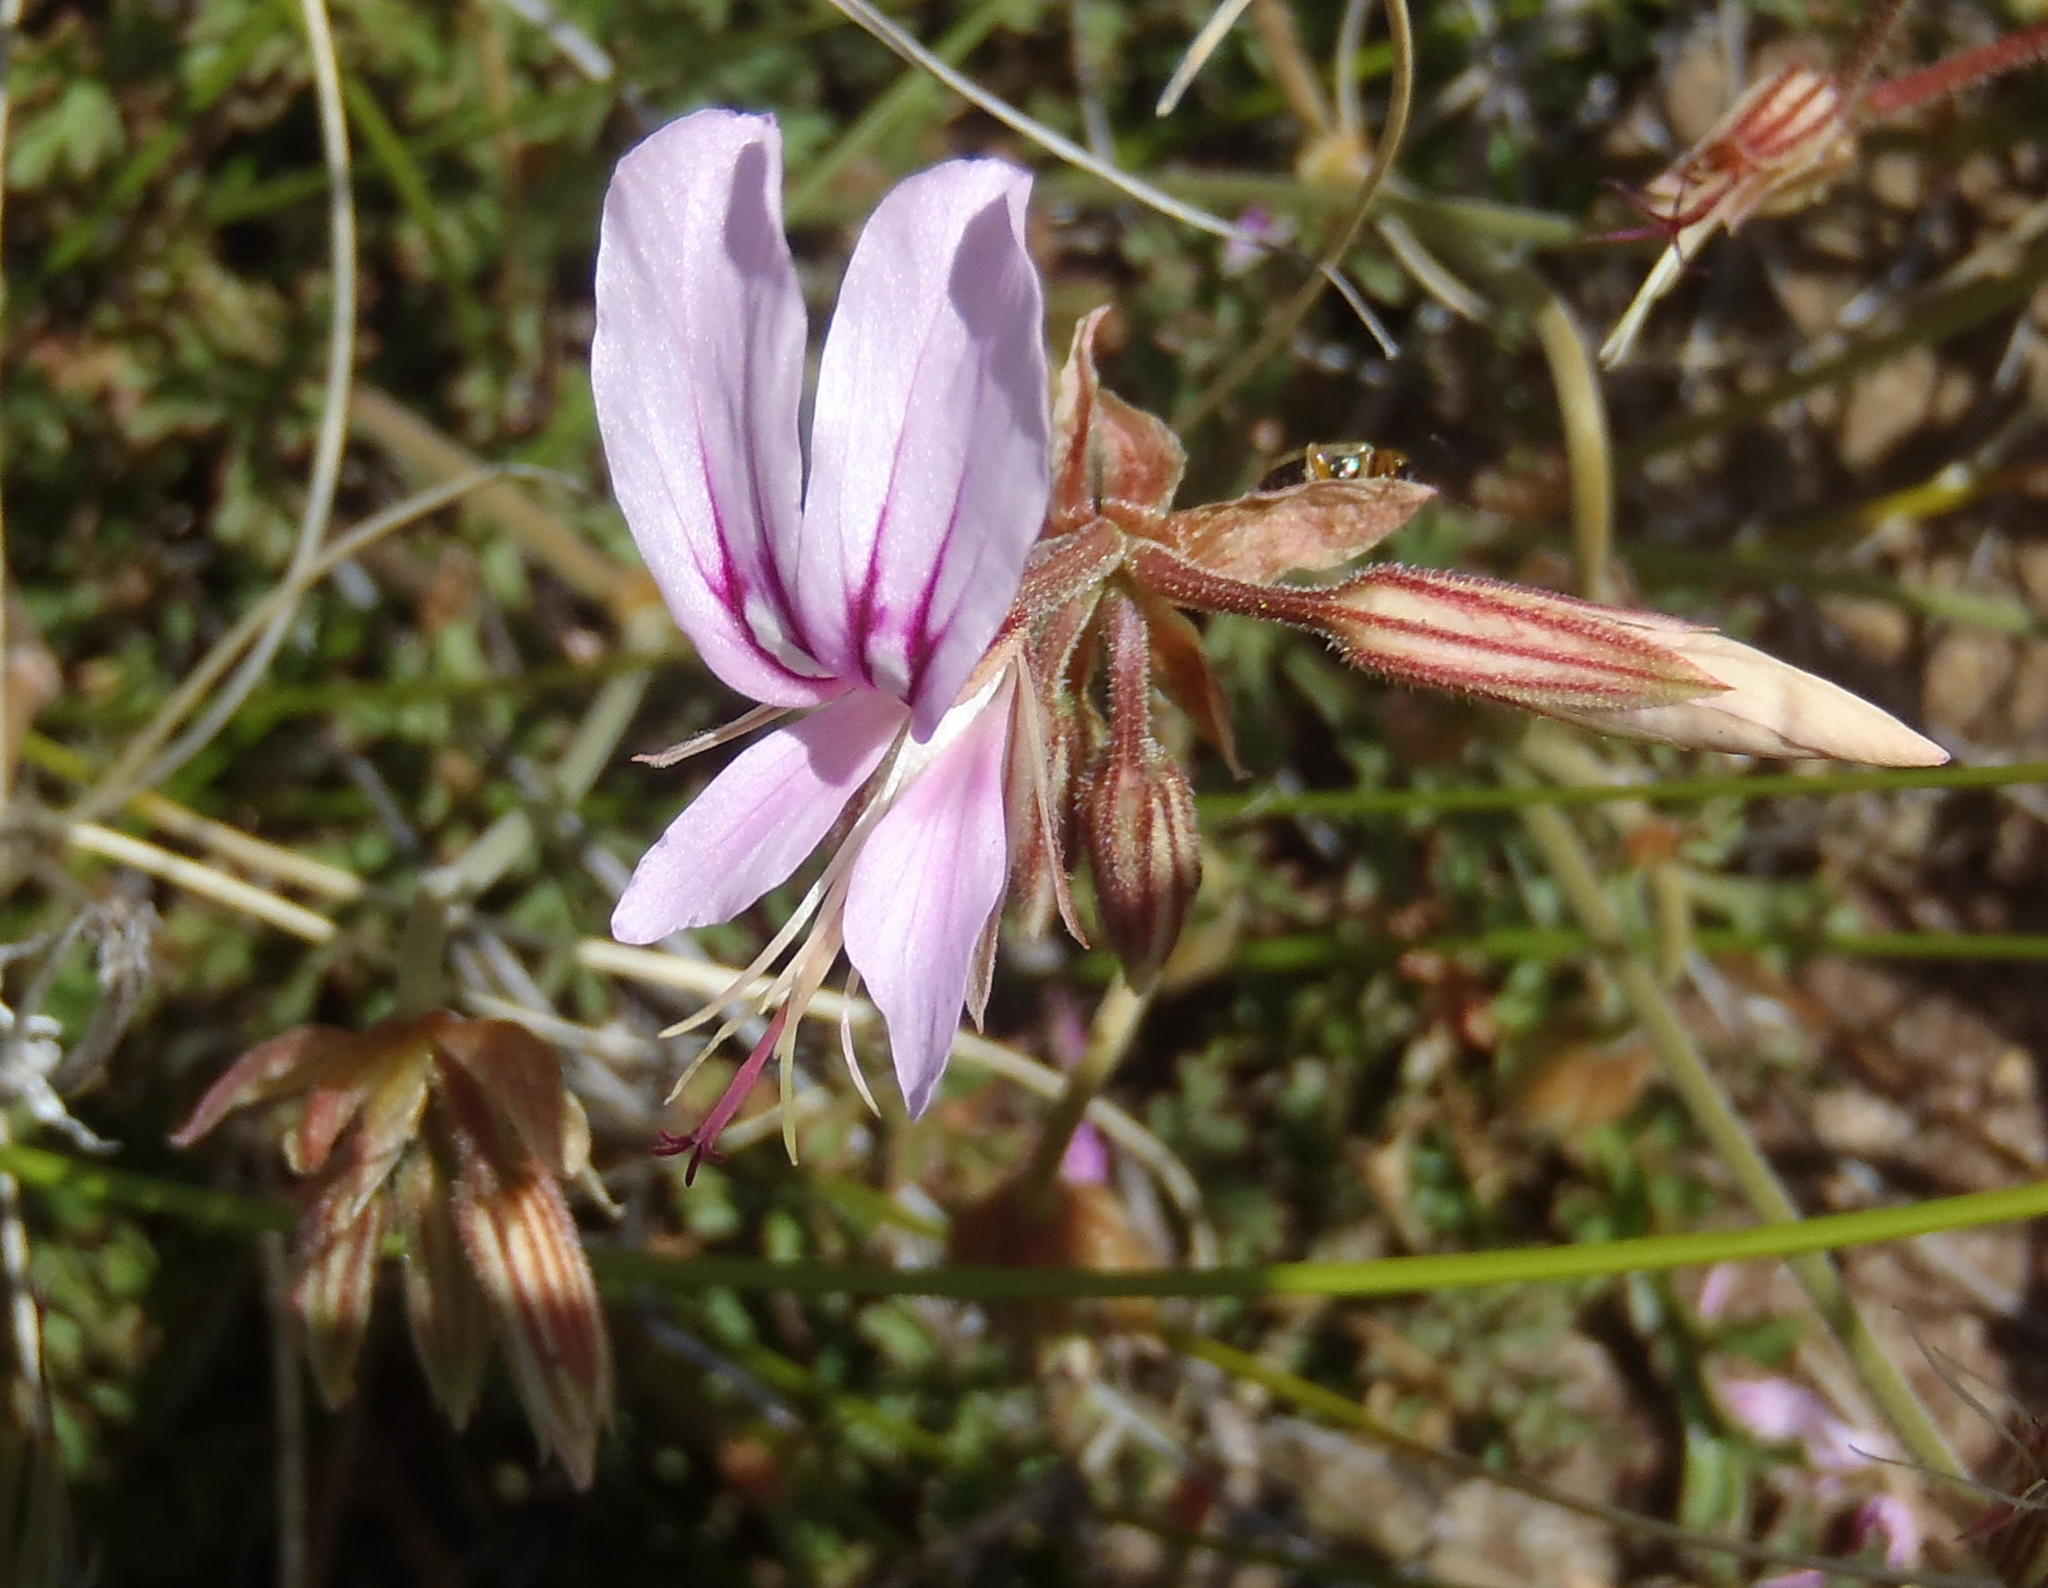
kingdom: Plantae
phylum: Tracheophyta
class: Magnoliopsida
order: Geraniales
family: Geraniaceae
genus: Pelargonium
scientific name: Pelargonium multicaule
